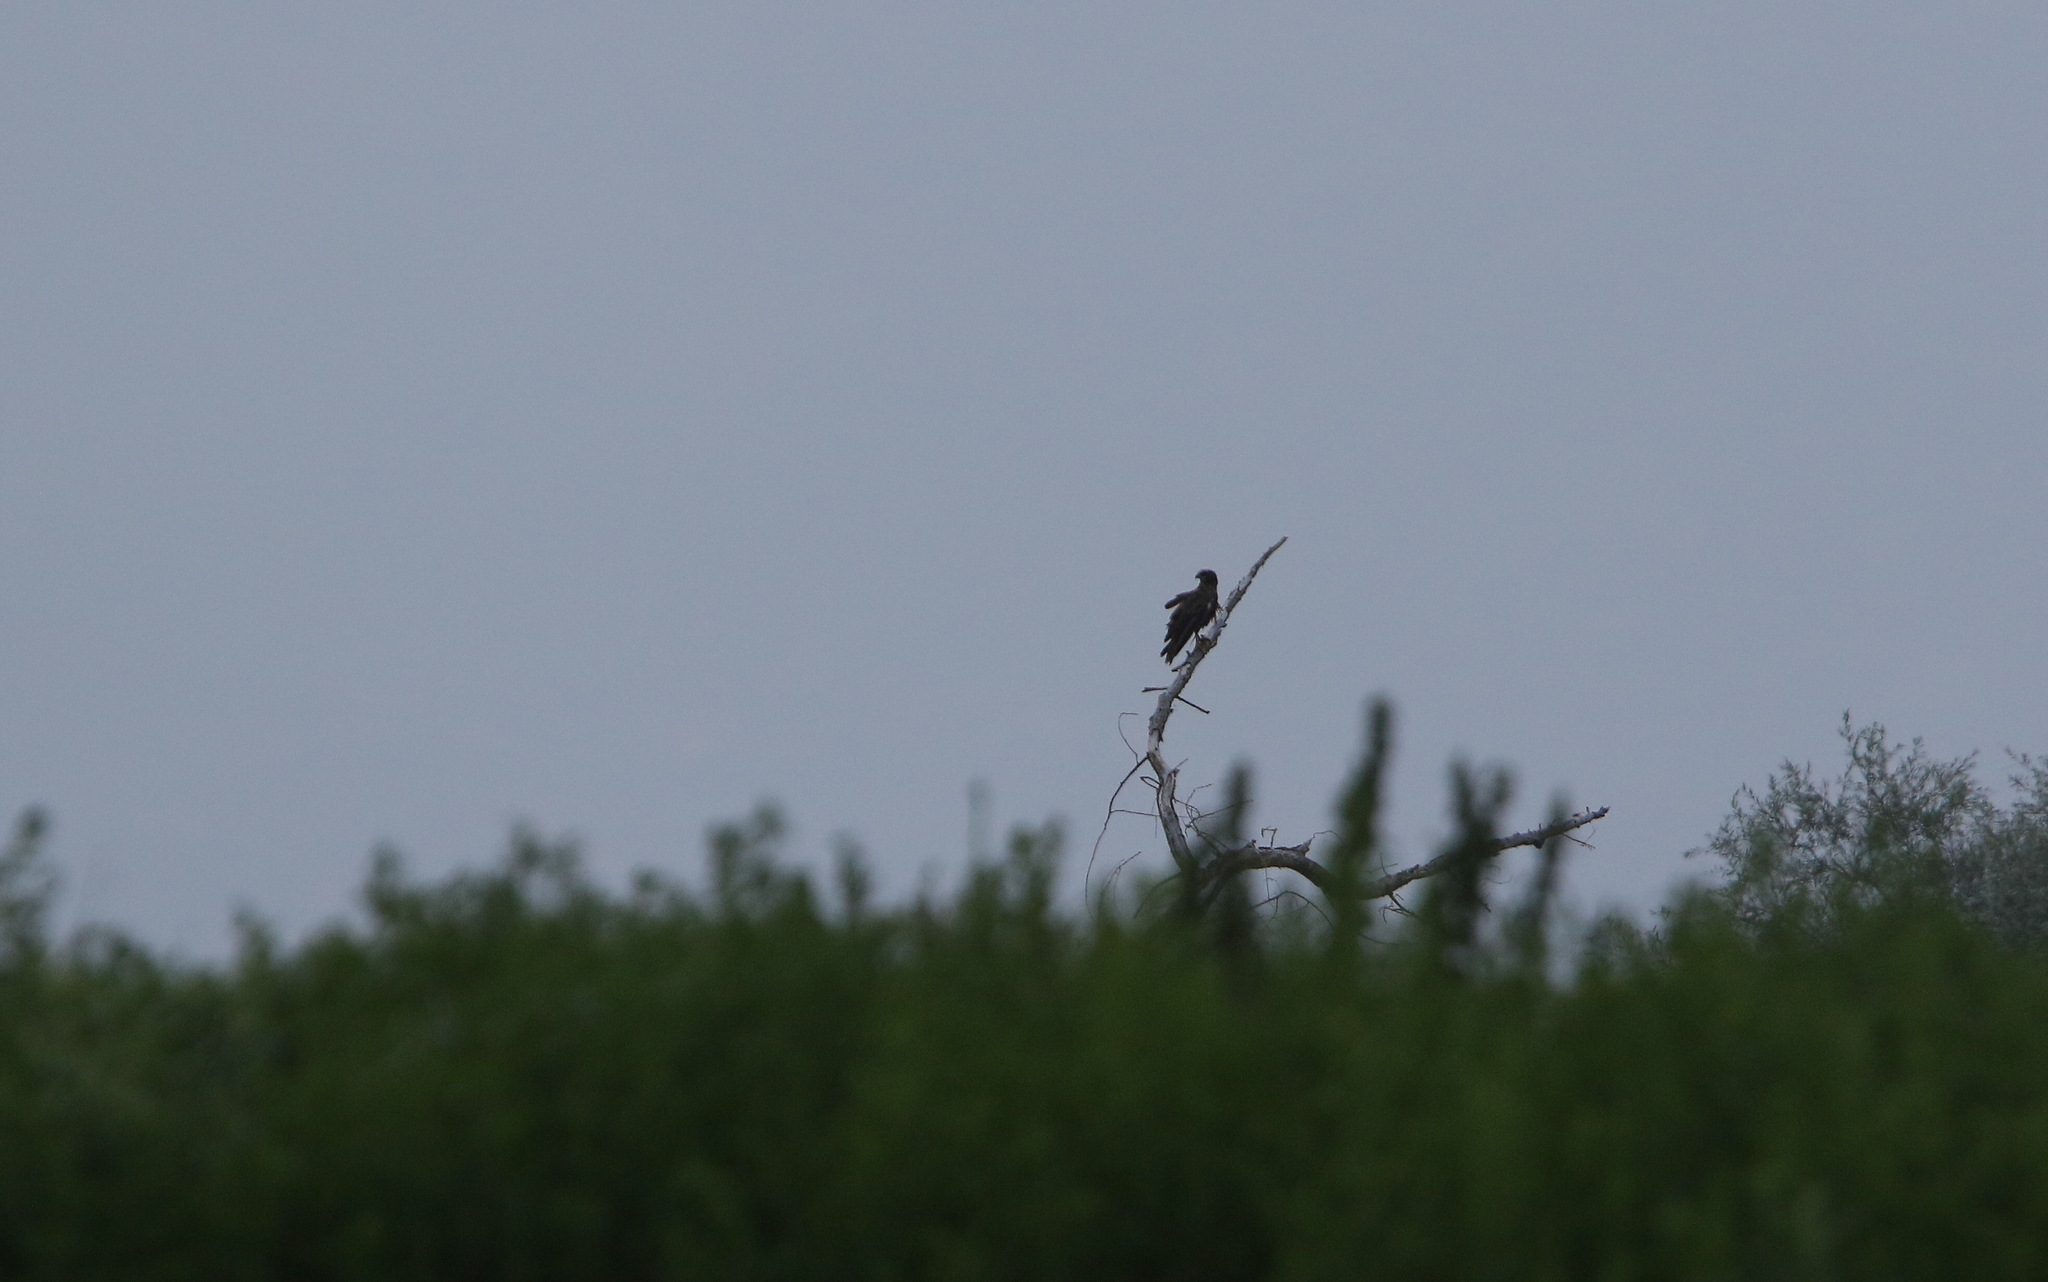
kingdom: Animalia
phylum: Chordata
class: Aves
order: Accipitriformes
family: Accipitridae
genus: Circus
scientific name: Circus aeruginosus
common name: Western marsh harrier
